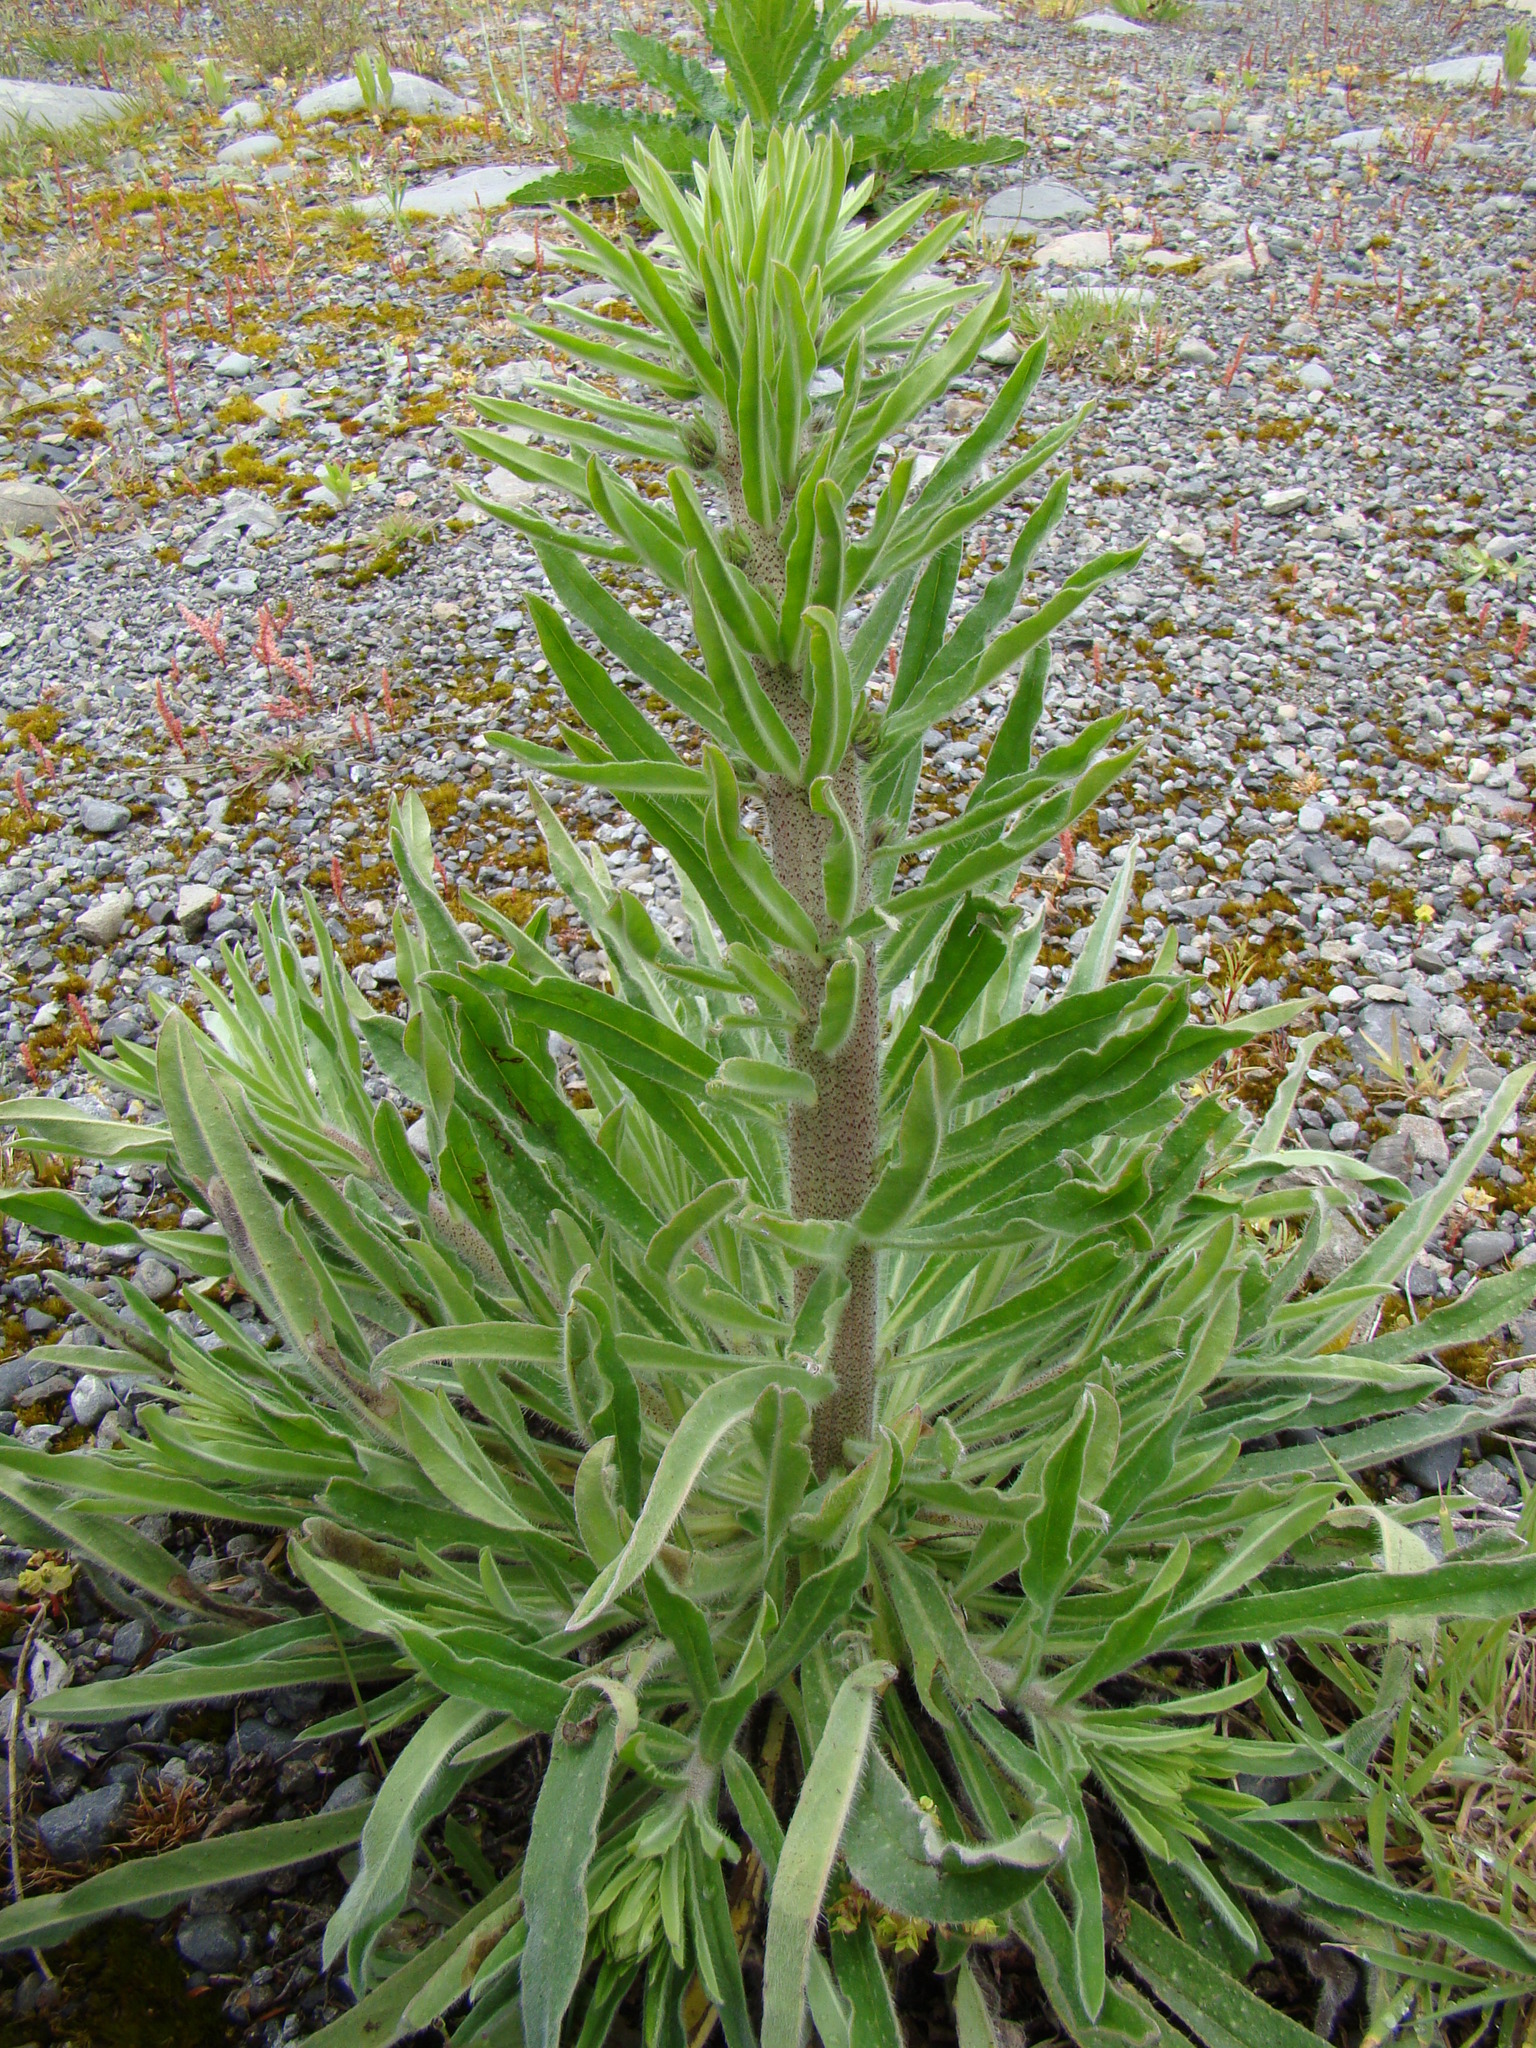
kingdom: Plantae
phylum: Tracheophyta
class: Magnoliopsida
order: Boraginales
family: Boraginaceae
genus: Echium
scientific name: Echium vulgare
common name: Common viper's bugloss
